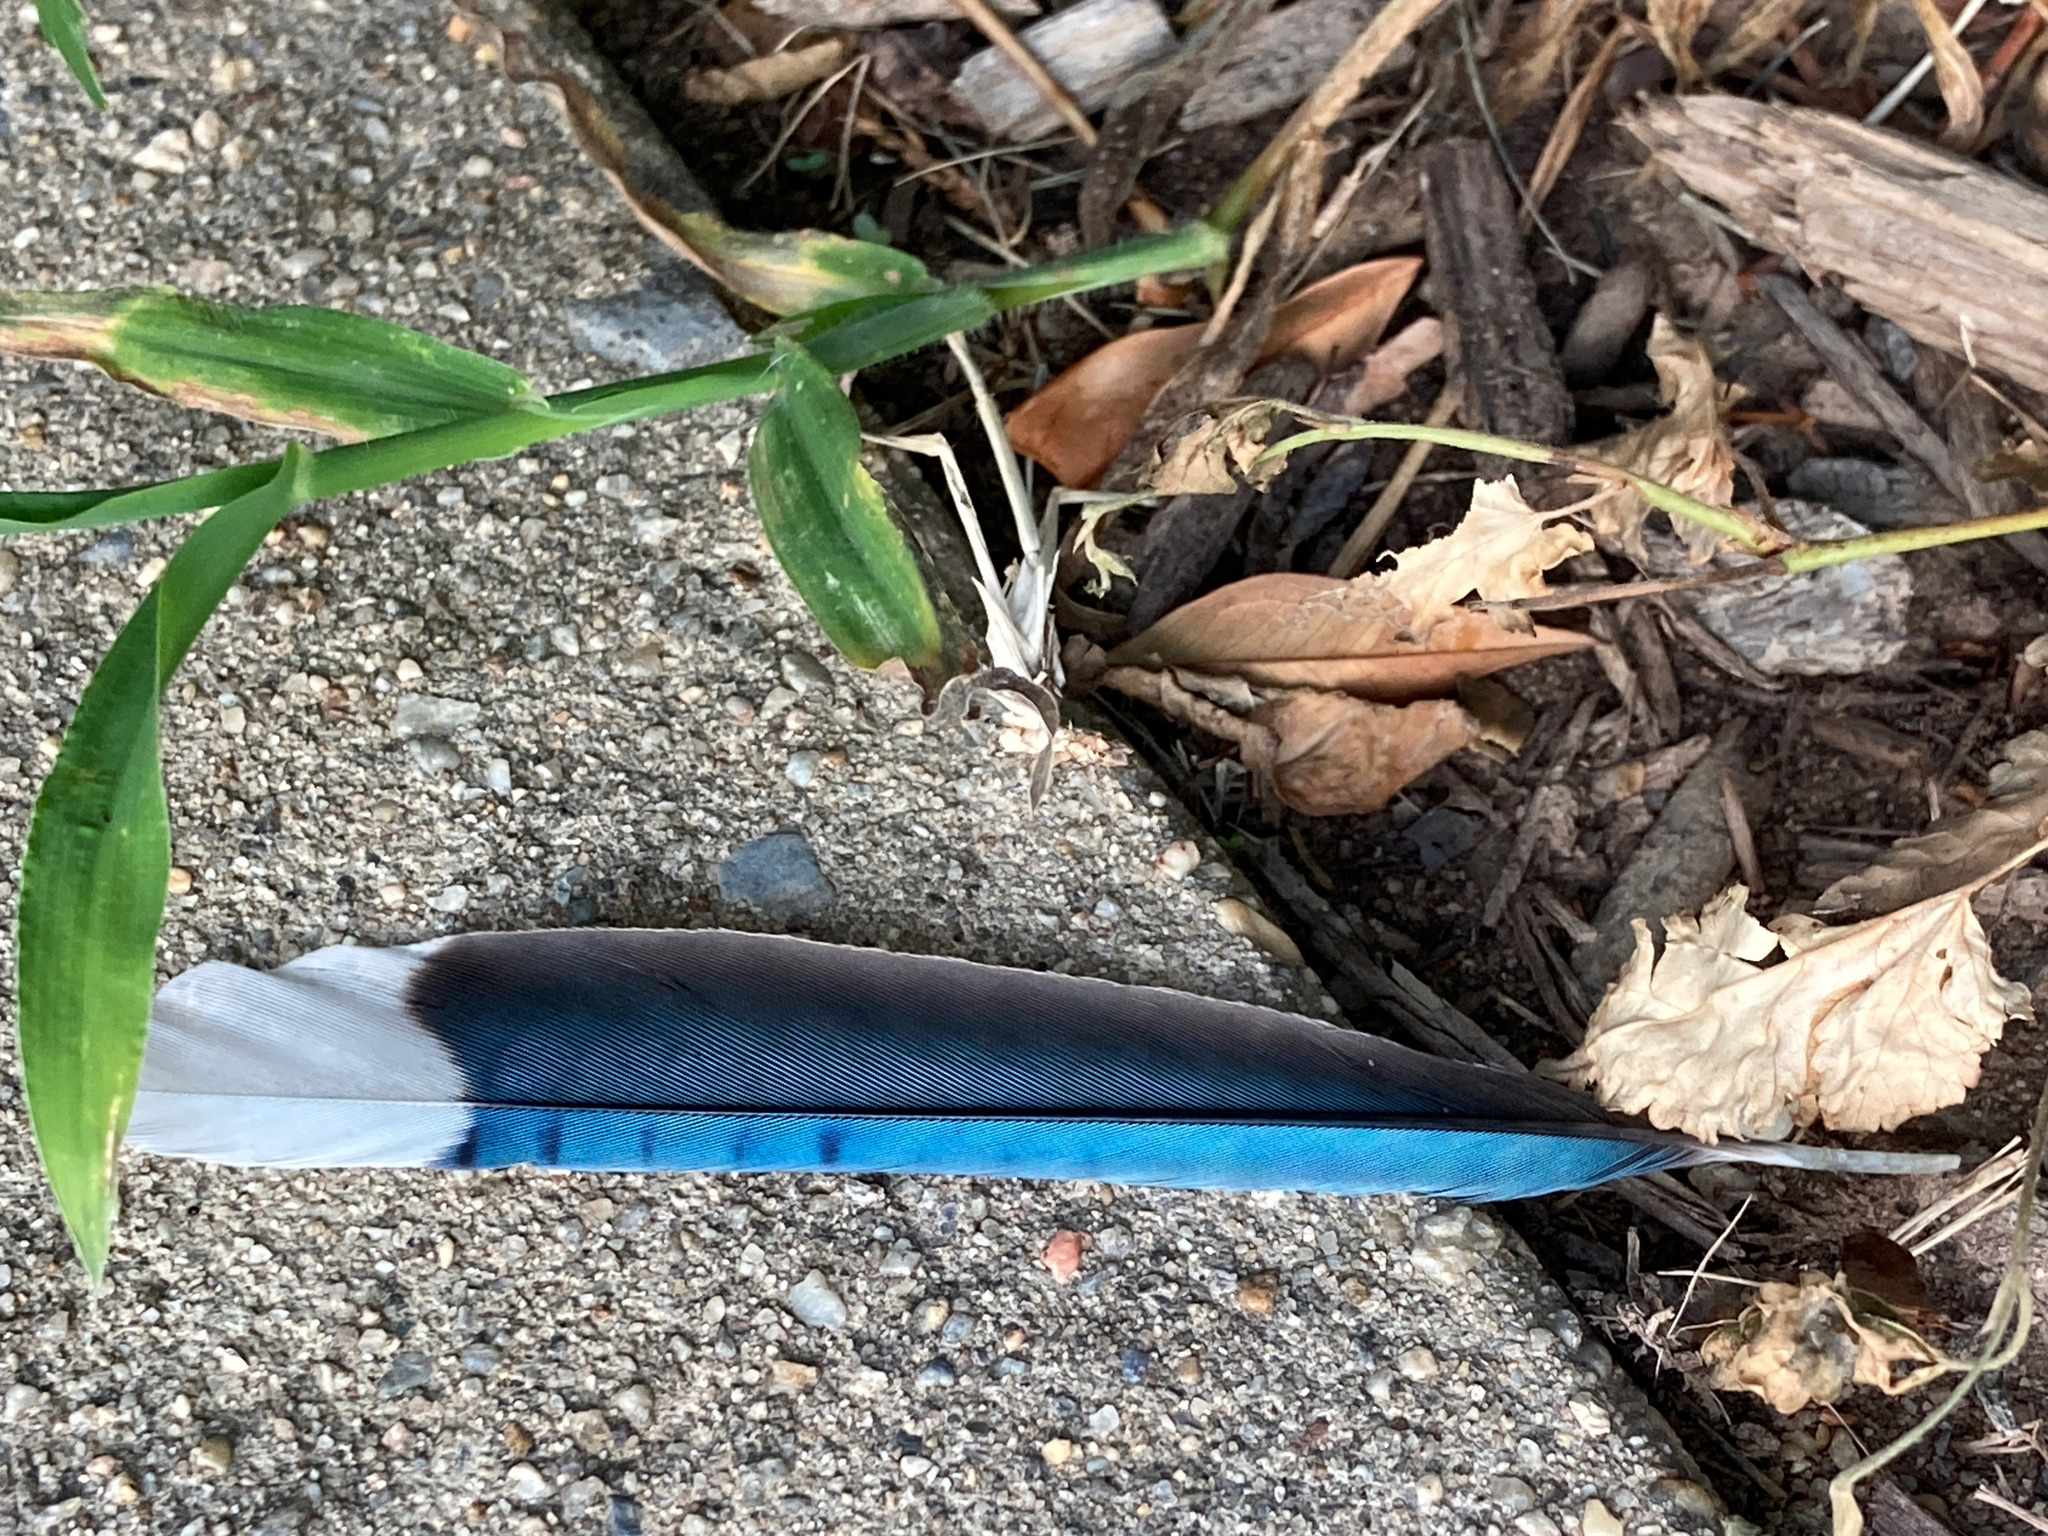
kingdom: Animalia
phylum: Chordata
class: Aves
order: Passeriformes
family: Corvidae
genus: Cyanocitta
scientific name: Cyanocitta cristata
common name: Blue jay
